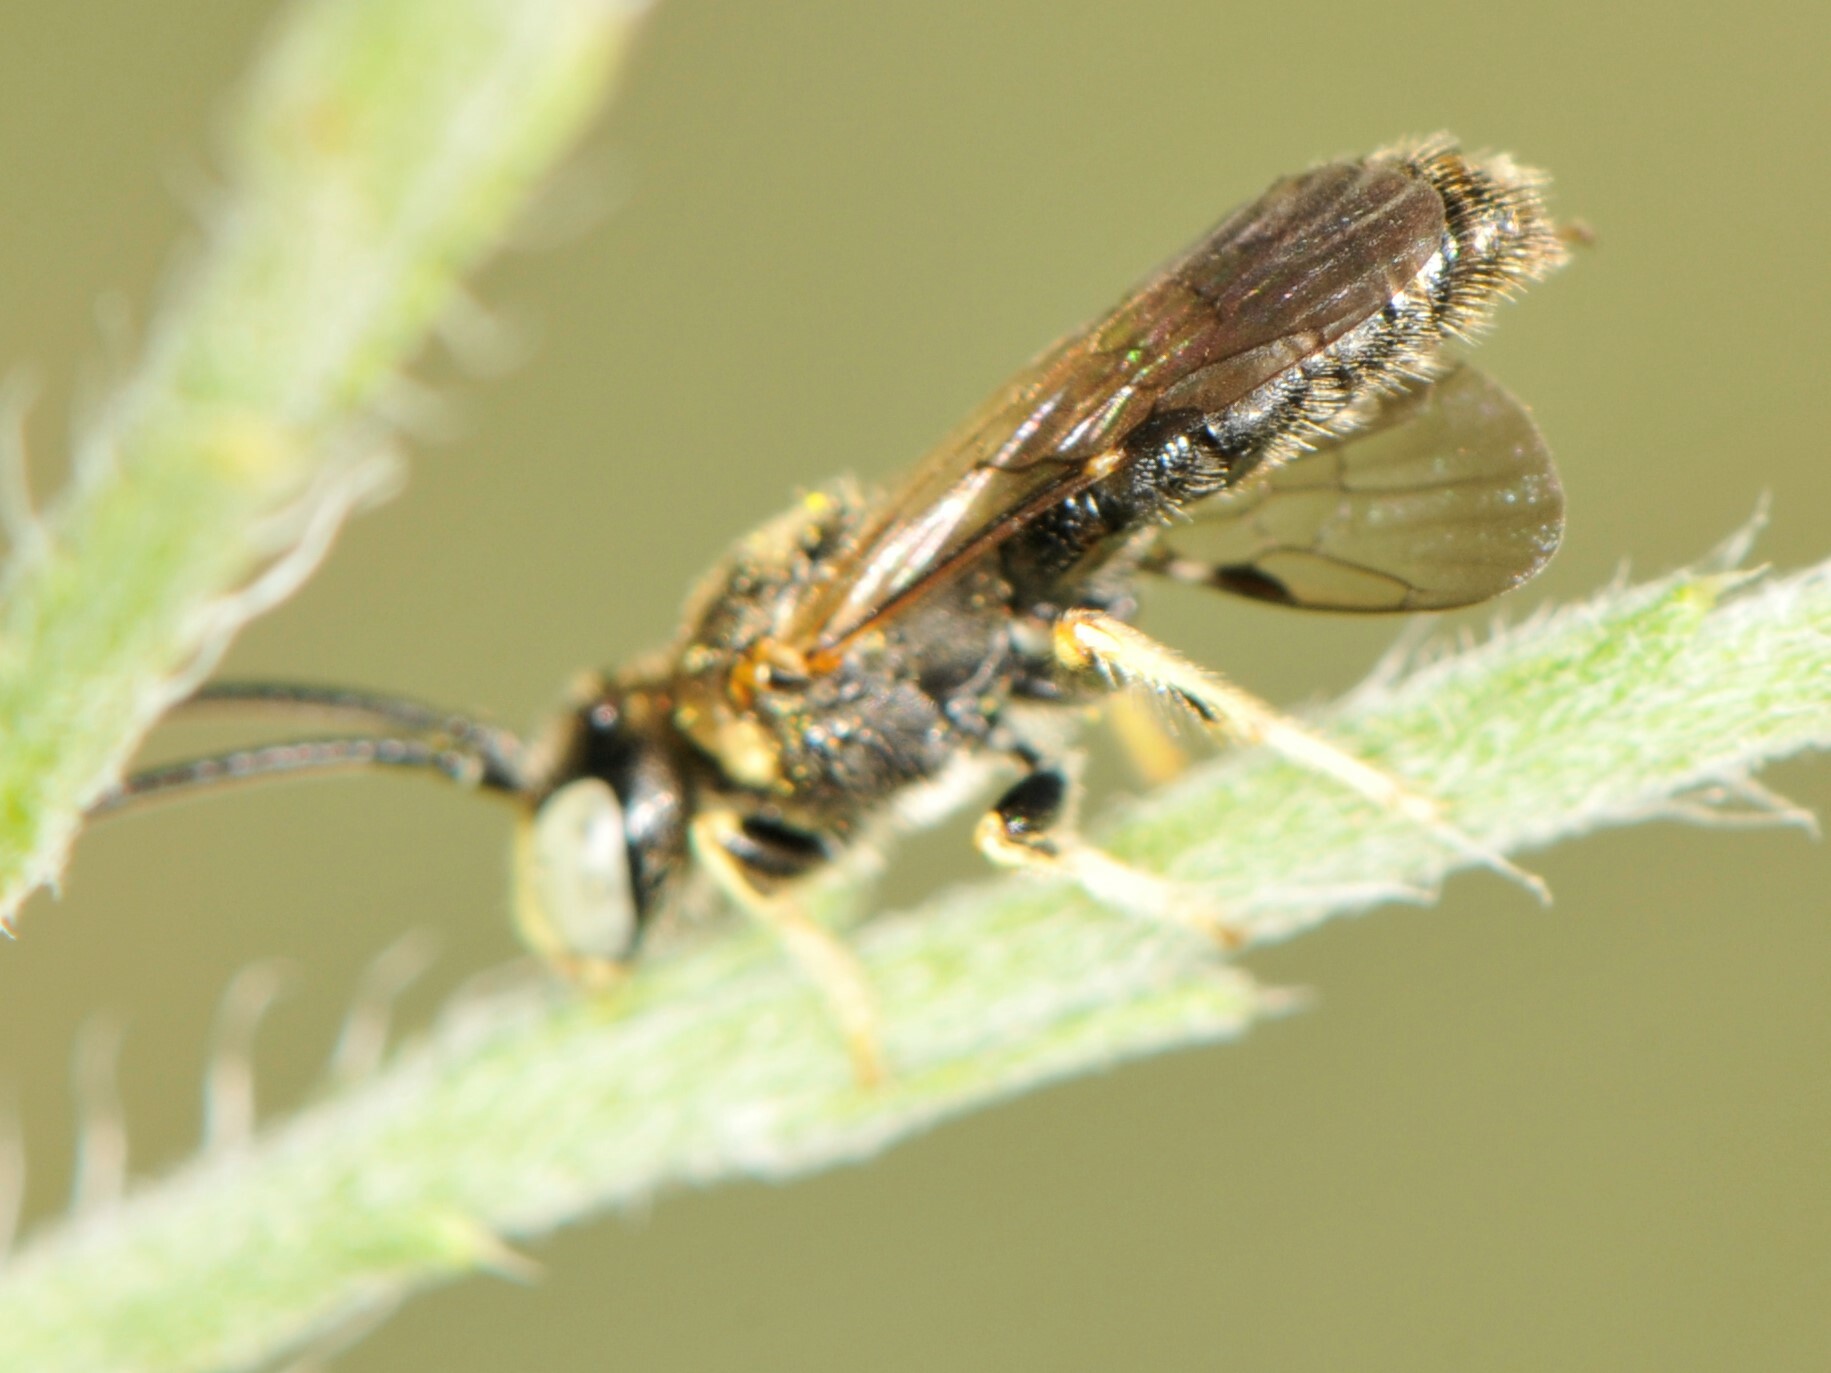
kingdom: Animalia
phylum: Arthropoda
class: Insecta
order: Hymenoptera
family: Andrenidae
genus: Pterosarus
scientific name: Pterosarus
